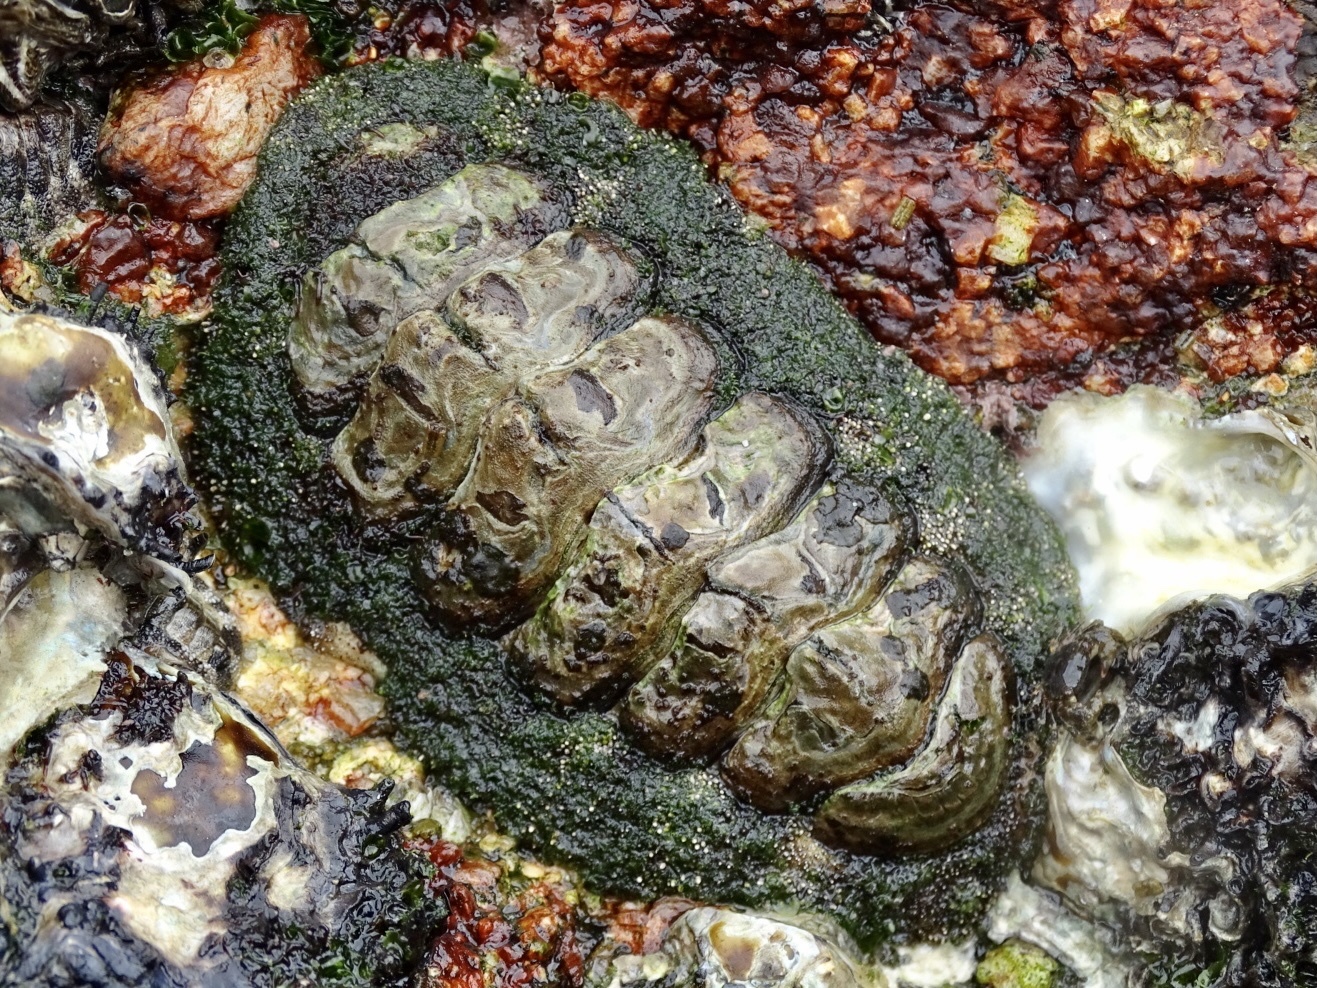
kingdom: Animalia
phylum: Mollusca
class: Polyplacophora
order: Chitonida
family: Chitonidae
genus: Liolophura
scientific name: Liolophura japonica
